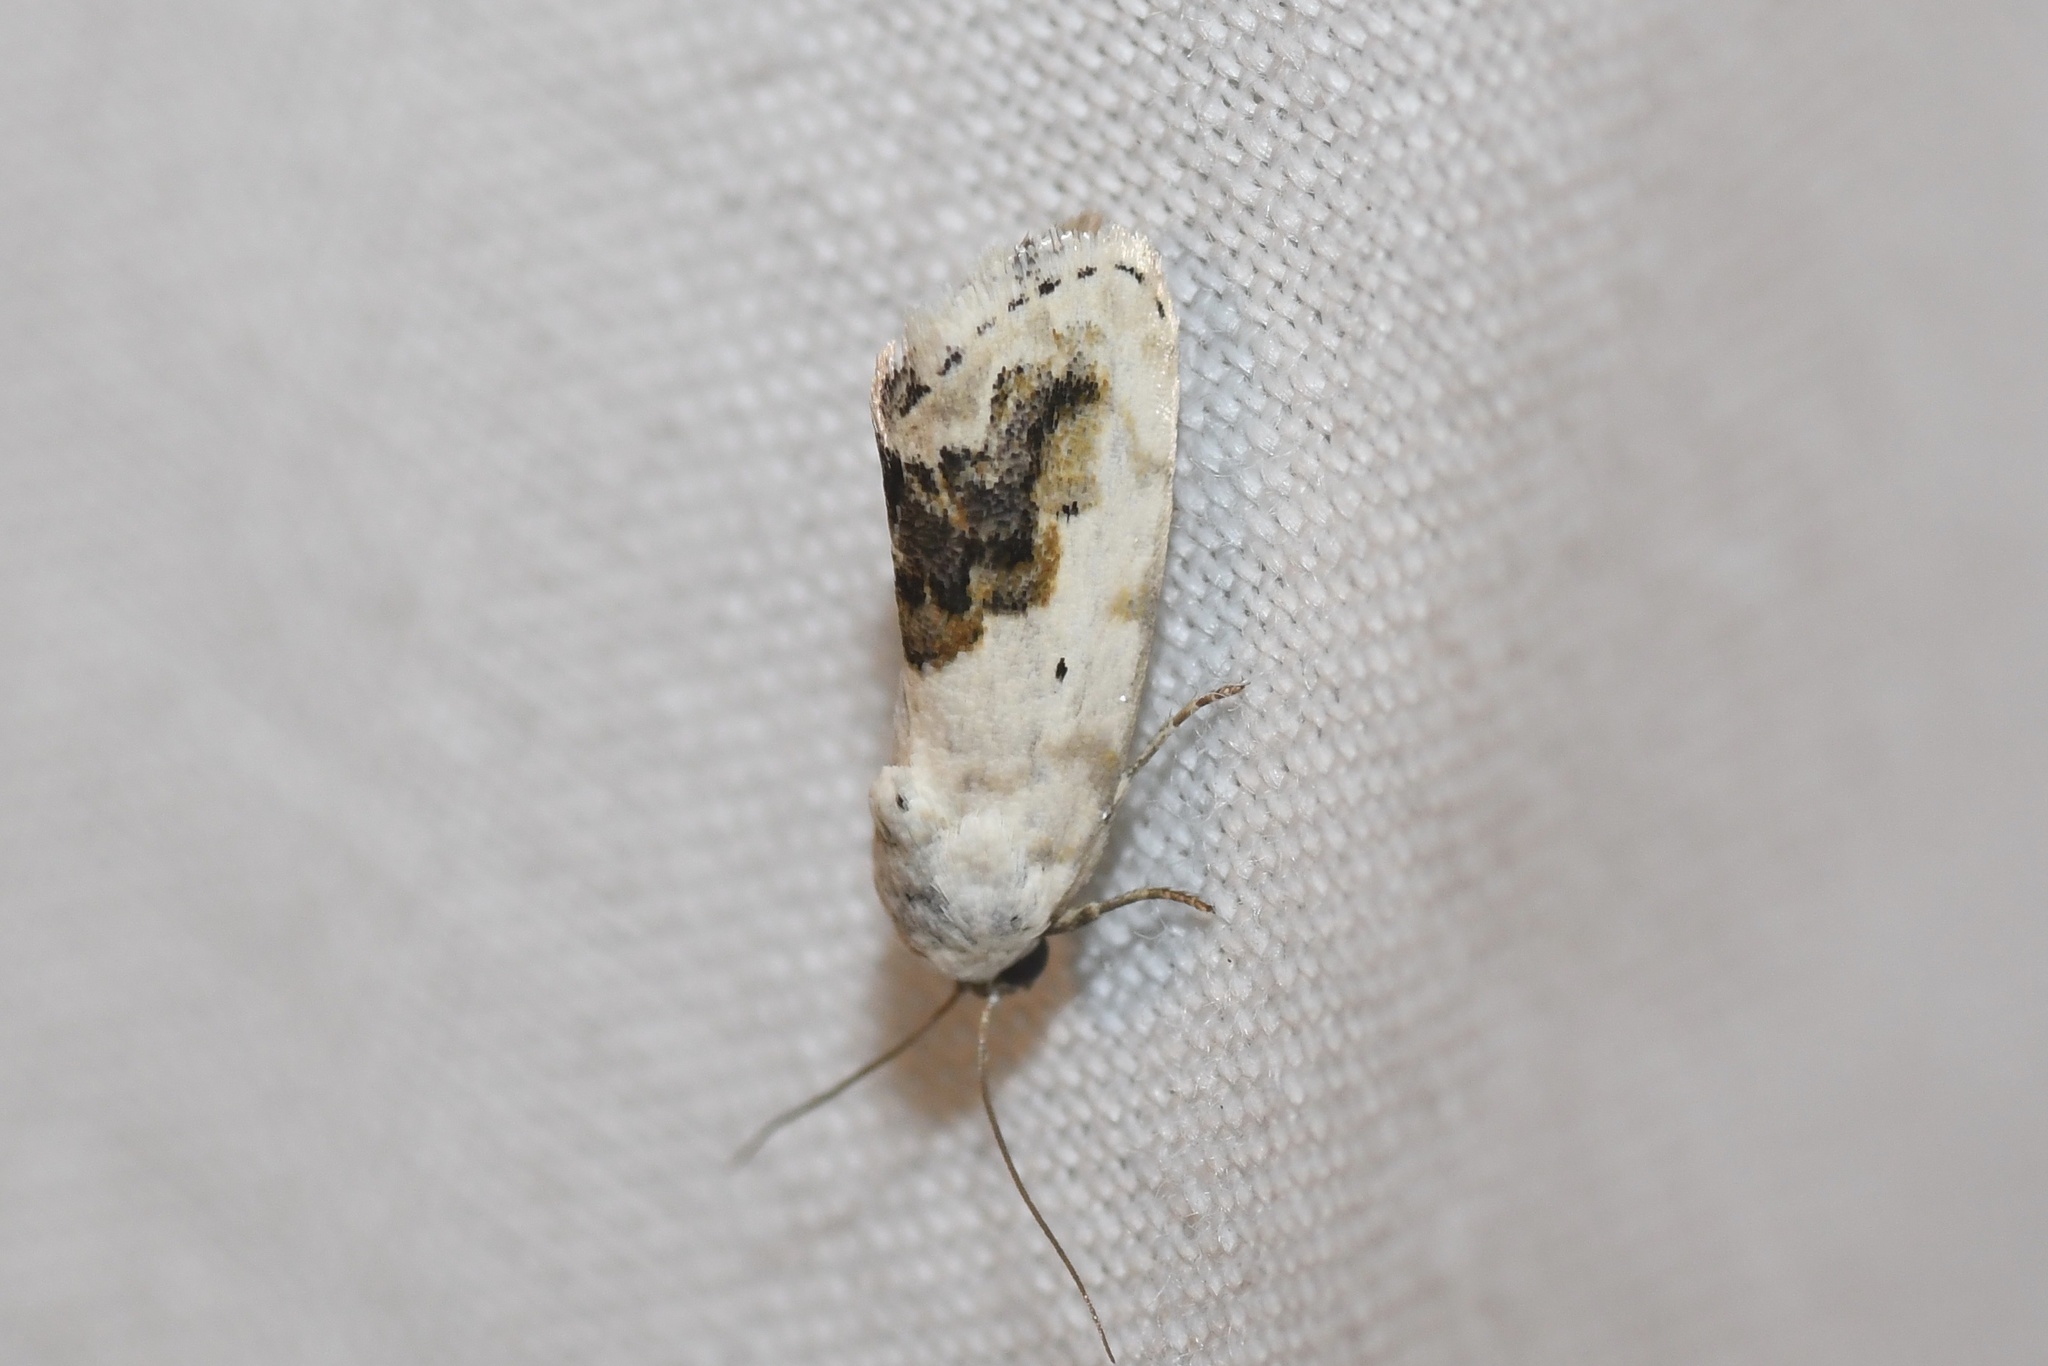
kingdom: Animalia
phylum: Arthropoda
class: Insecta
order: Lepidoptera
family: Noctuidae
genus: Acontia
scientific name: Acontia erastrioides
